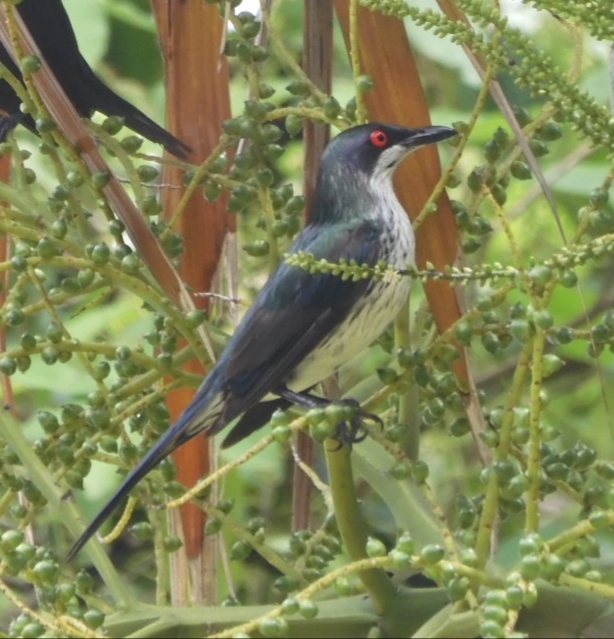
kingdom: Animalia
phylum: Chordata
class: Aves
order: Passeriformes
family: Sturnidae
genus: Aplonis
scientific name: Aplonis metallica
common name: Metallic starling
